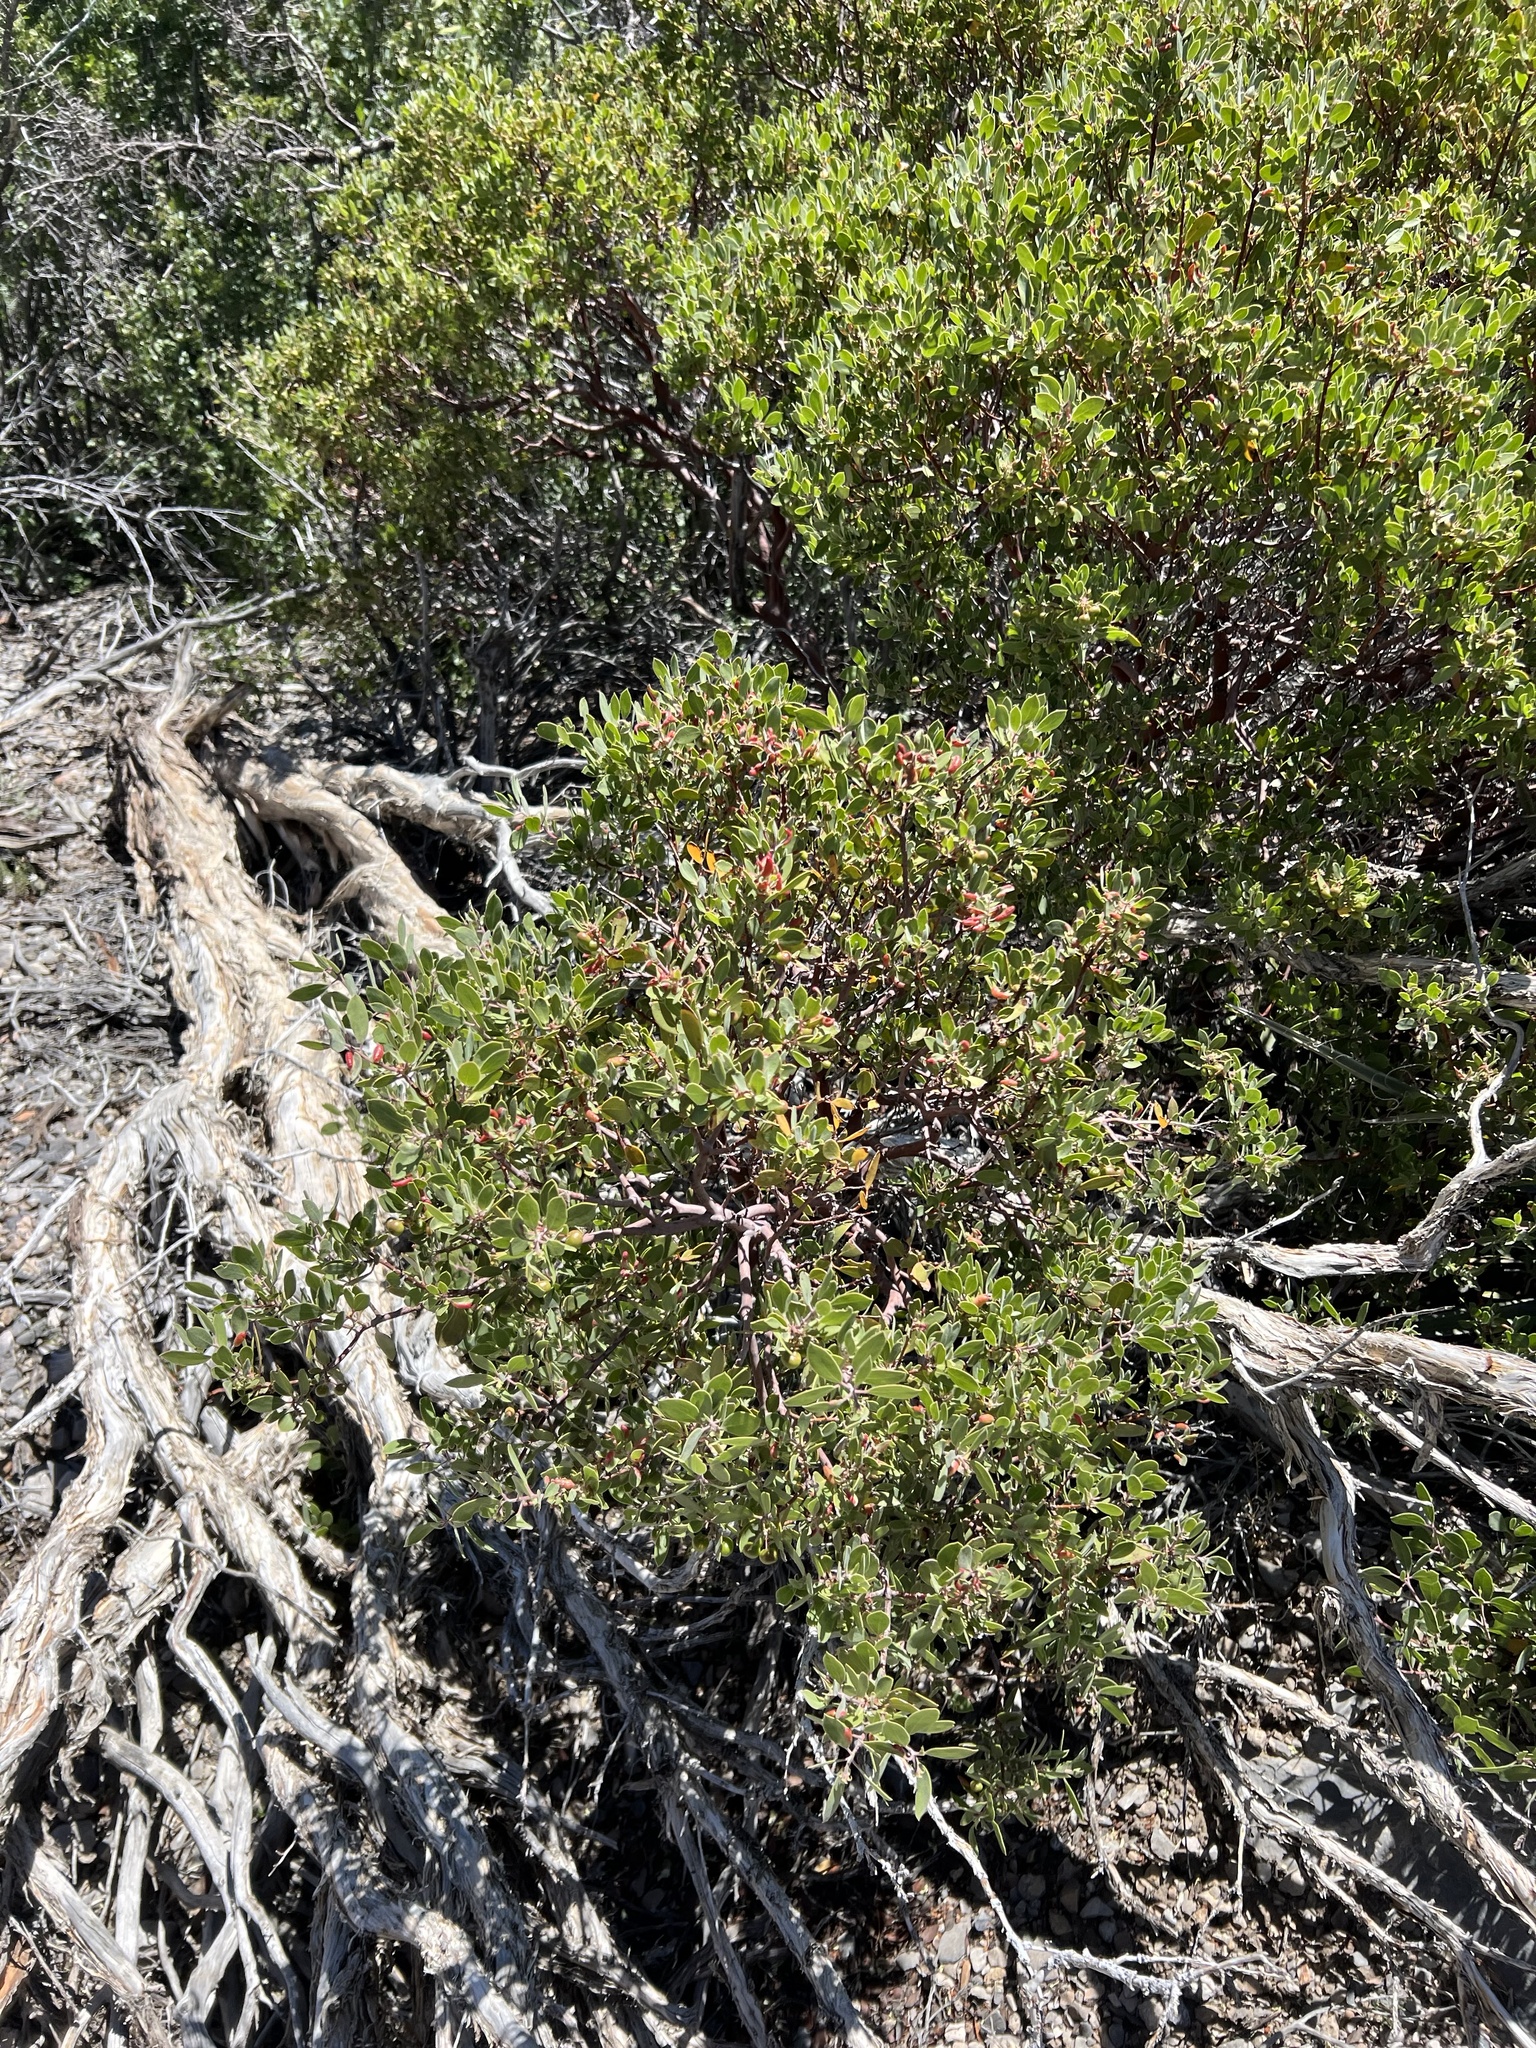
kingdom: Plantae
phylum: Tracheophyta
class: Magnoliopsida
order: Ericales
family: Ericaceae
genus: Arctostaphylos
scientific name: Arctostaphylos pungens
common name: Mexican manzanita
